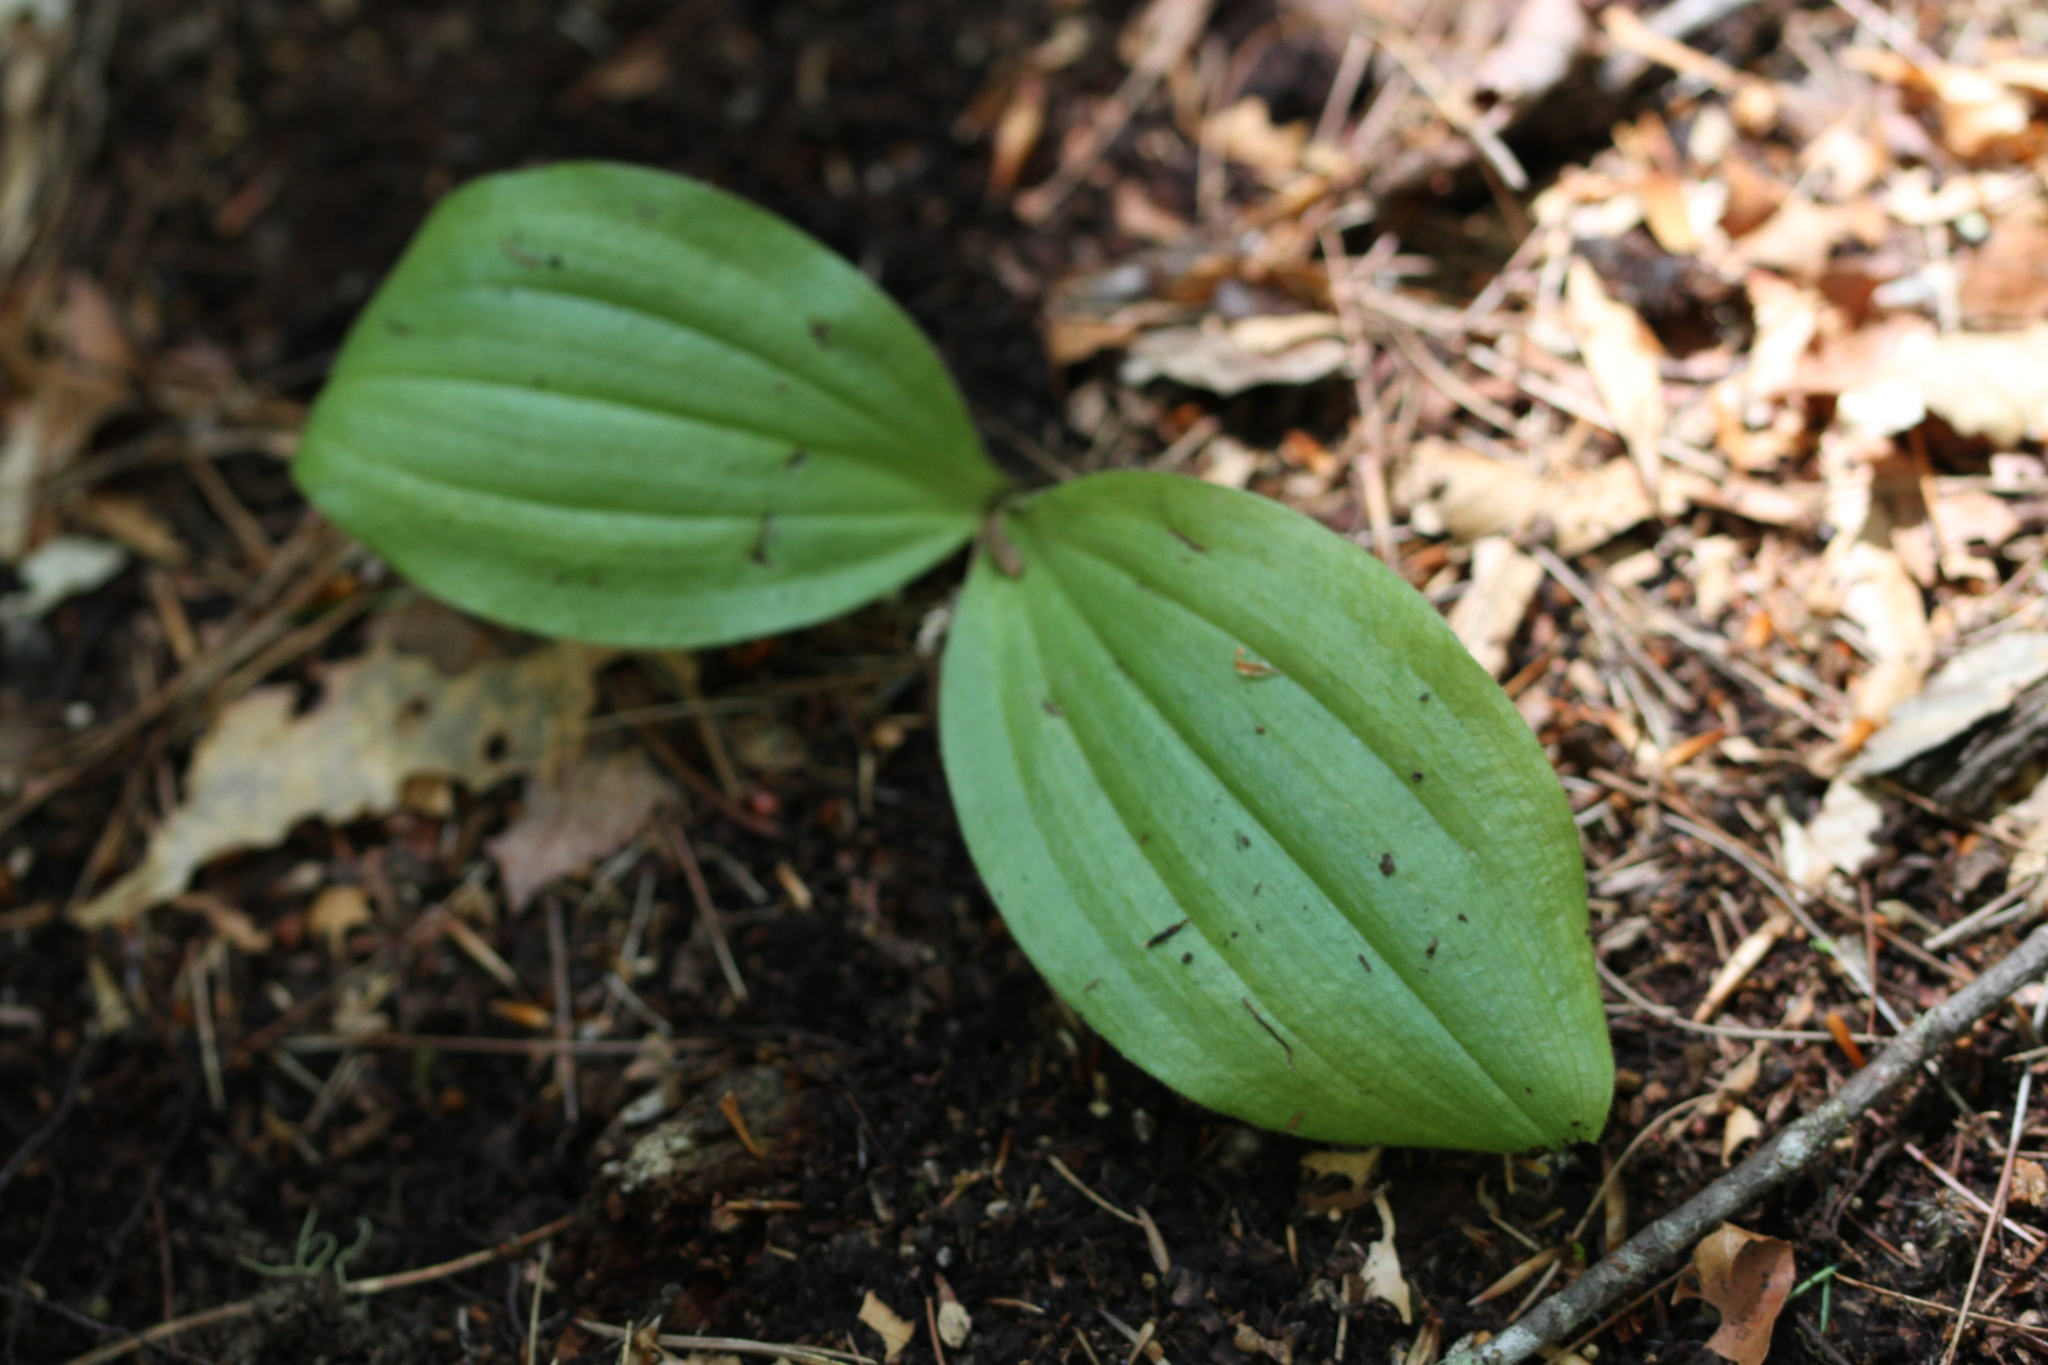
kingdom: Plantae
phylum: Tracheophyta
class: Liliopsida
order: Asparagales
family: Orchidaceae
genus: Cypripedium
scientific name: Cypripedium acaule
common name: Pink lady's-slipper
